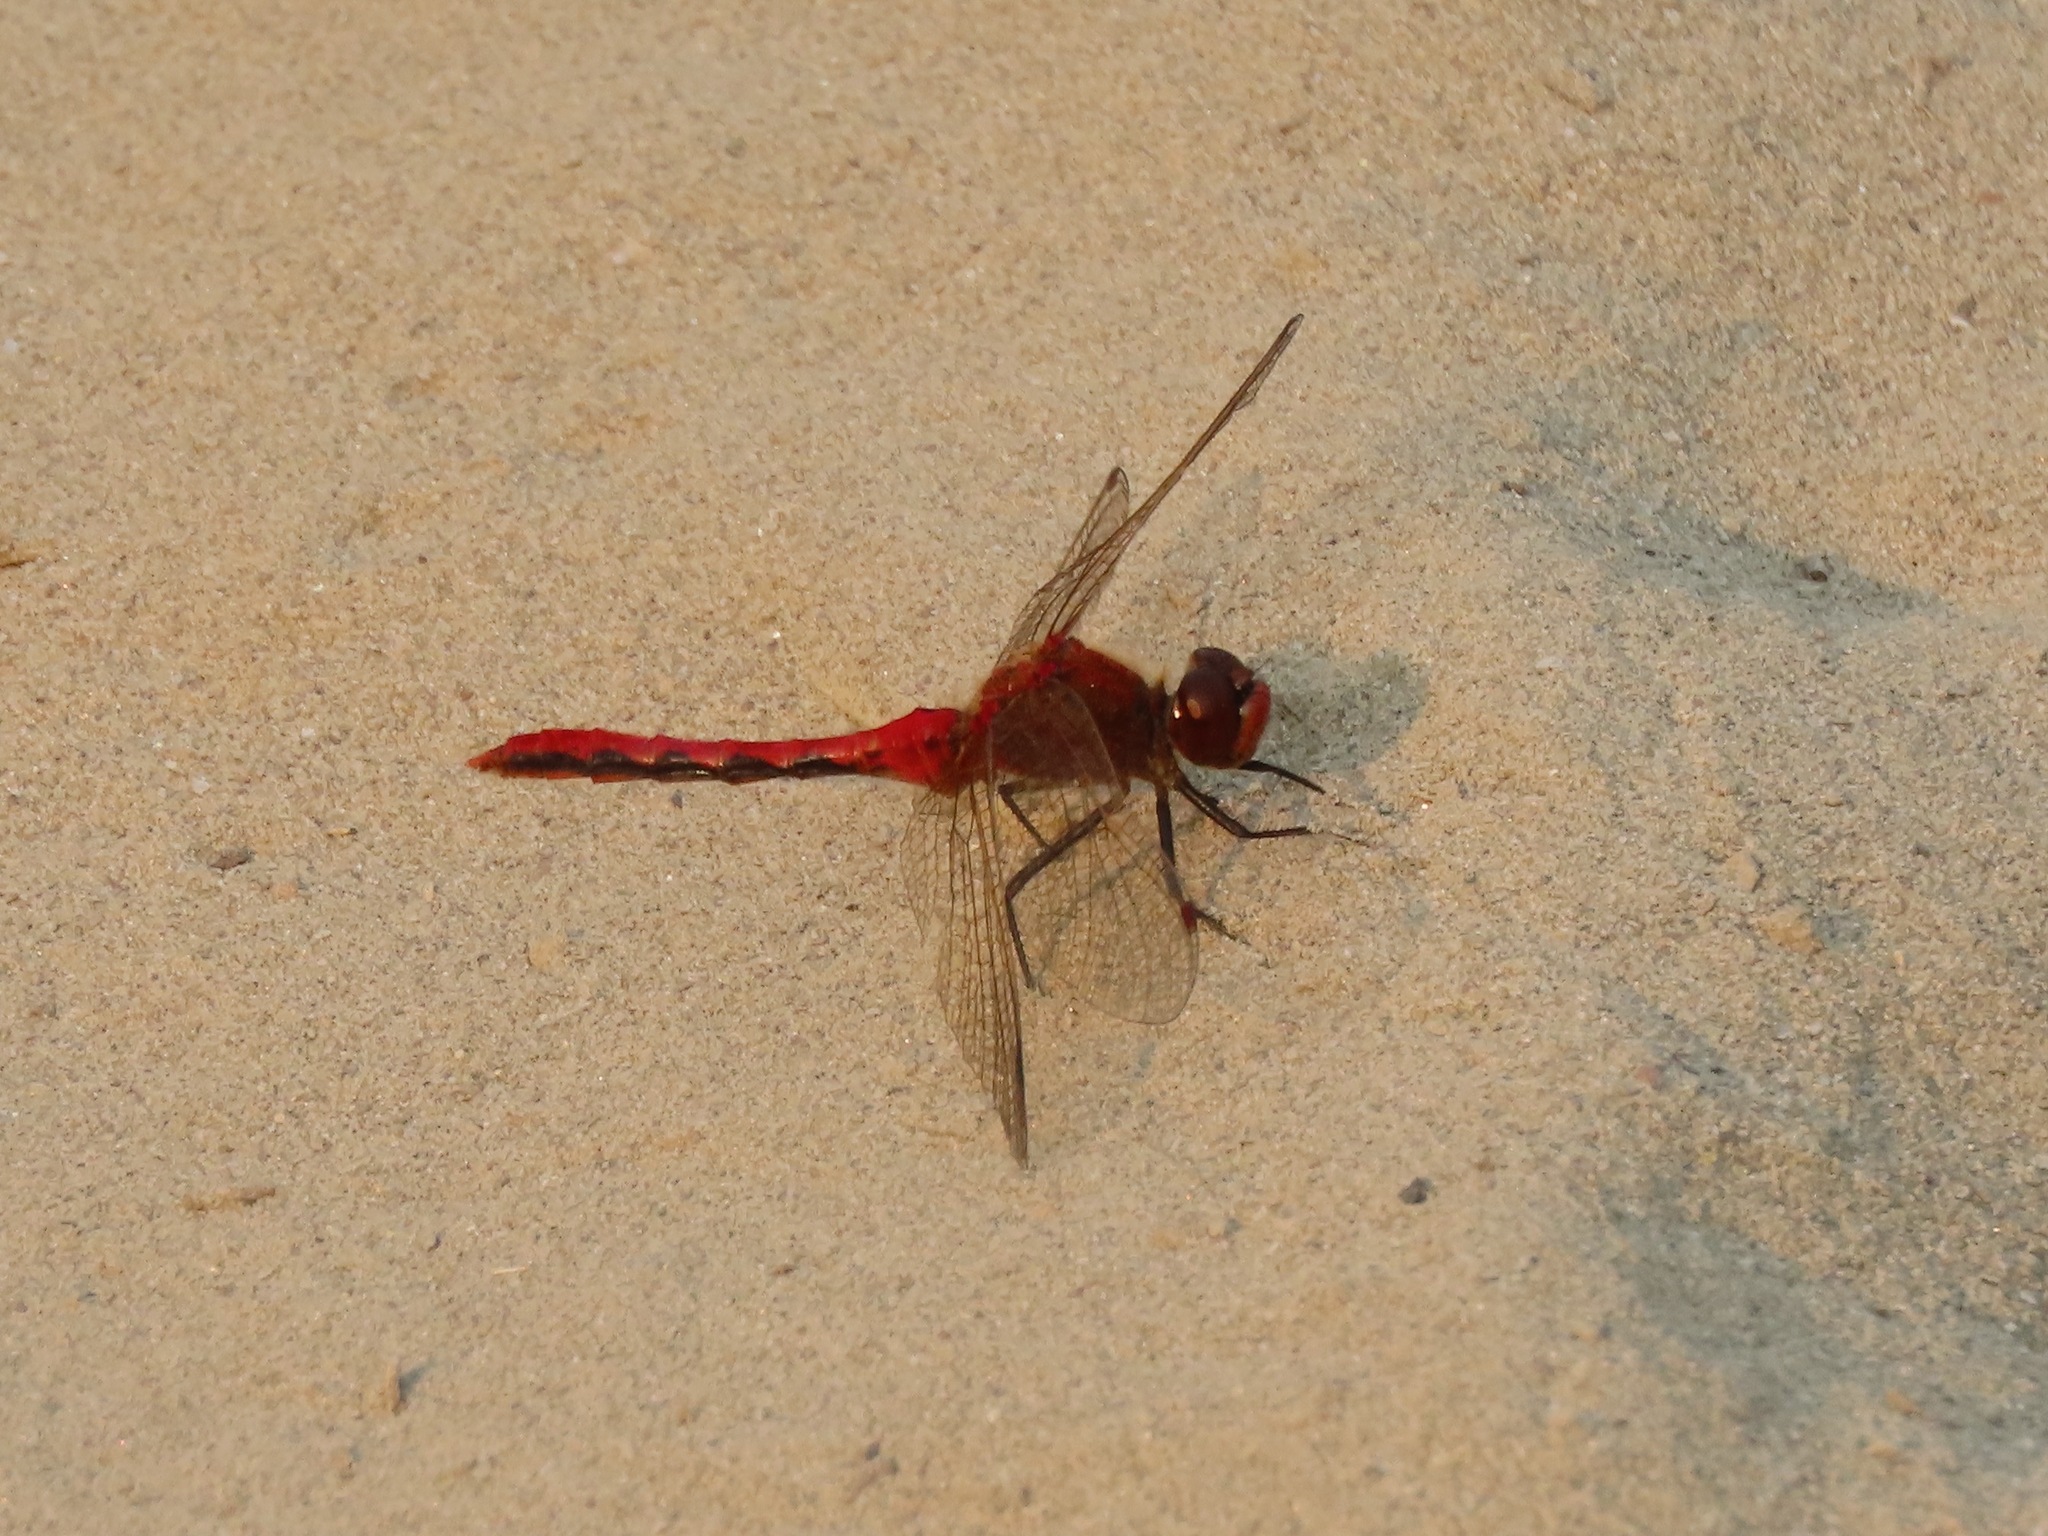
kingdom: Animalia
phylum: Arthropoda
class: Insecta
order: Odonata
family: Libellulidae
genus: Sympetrum
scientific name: Sympetrum internum
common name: Cherry-faced meadowhawk
